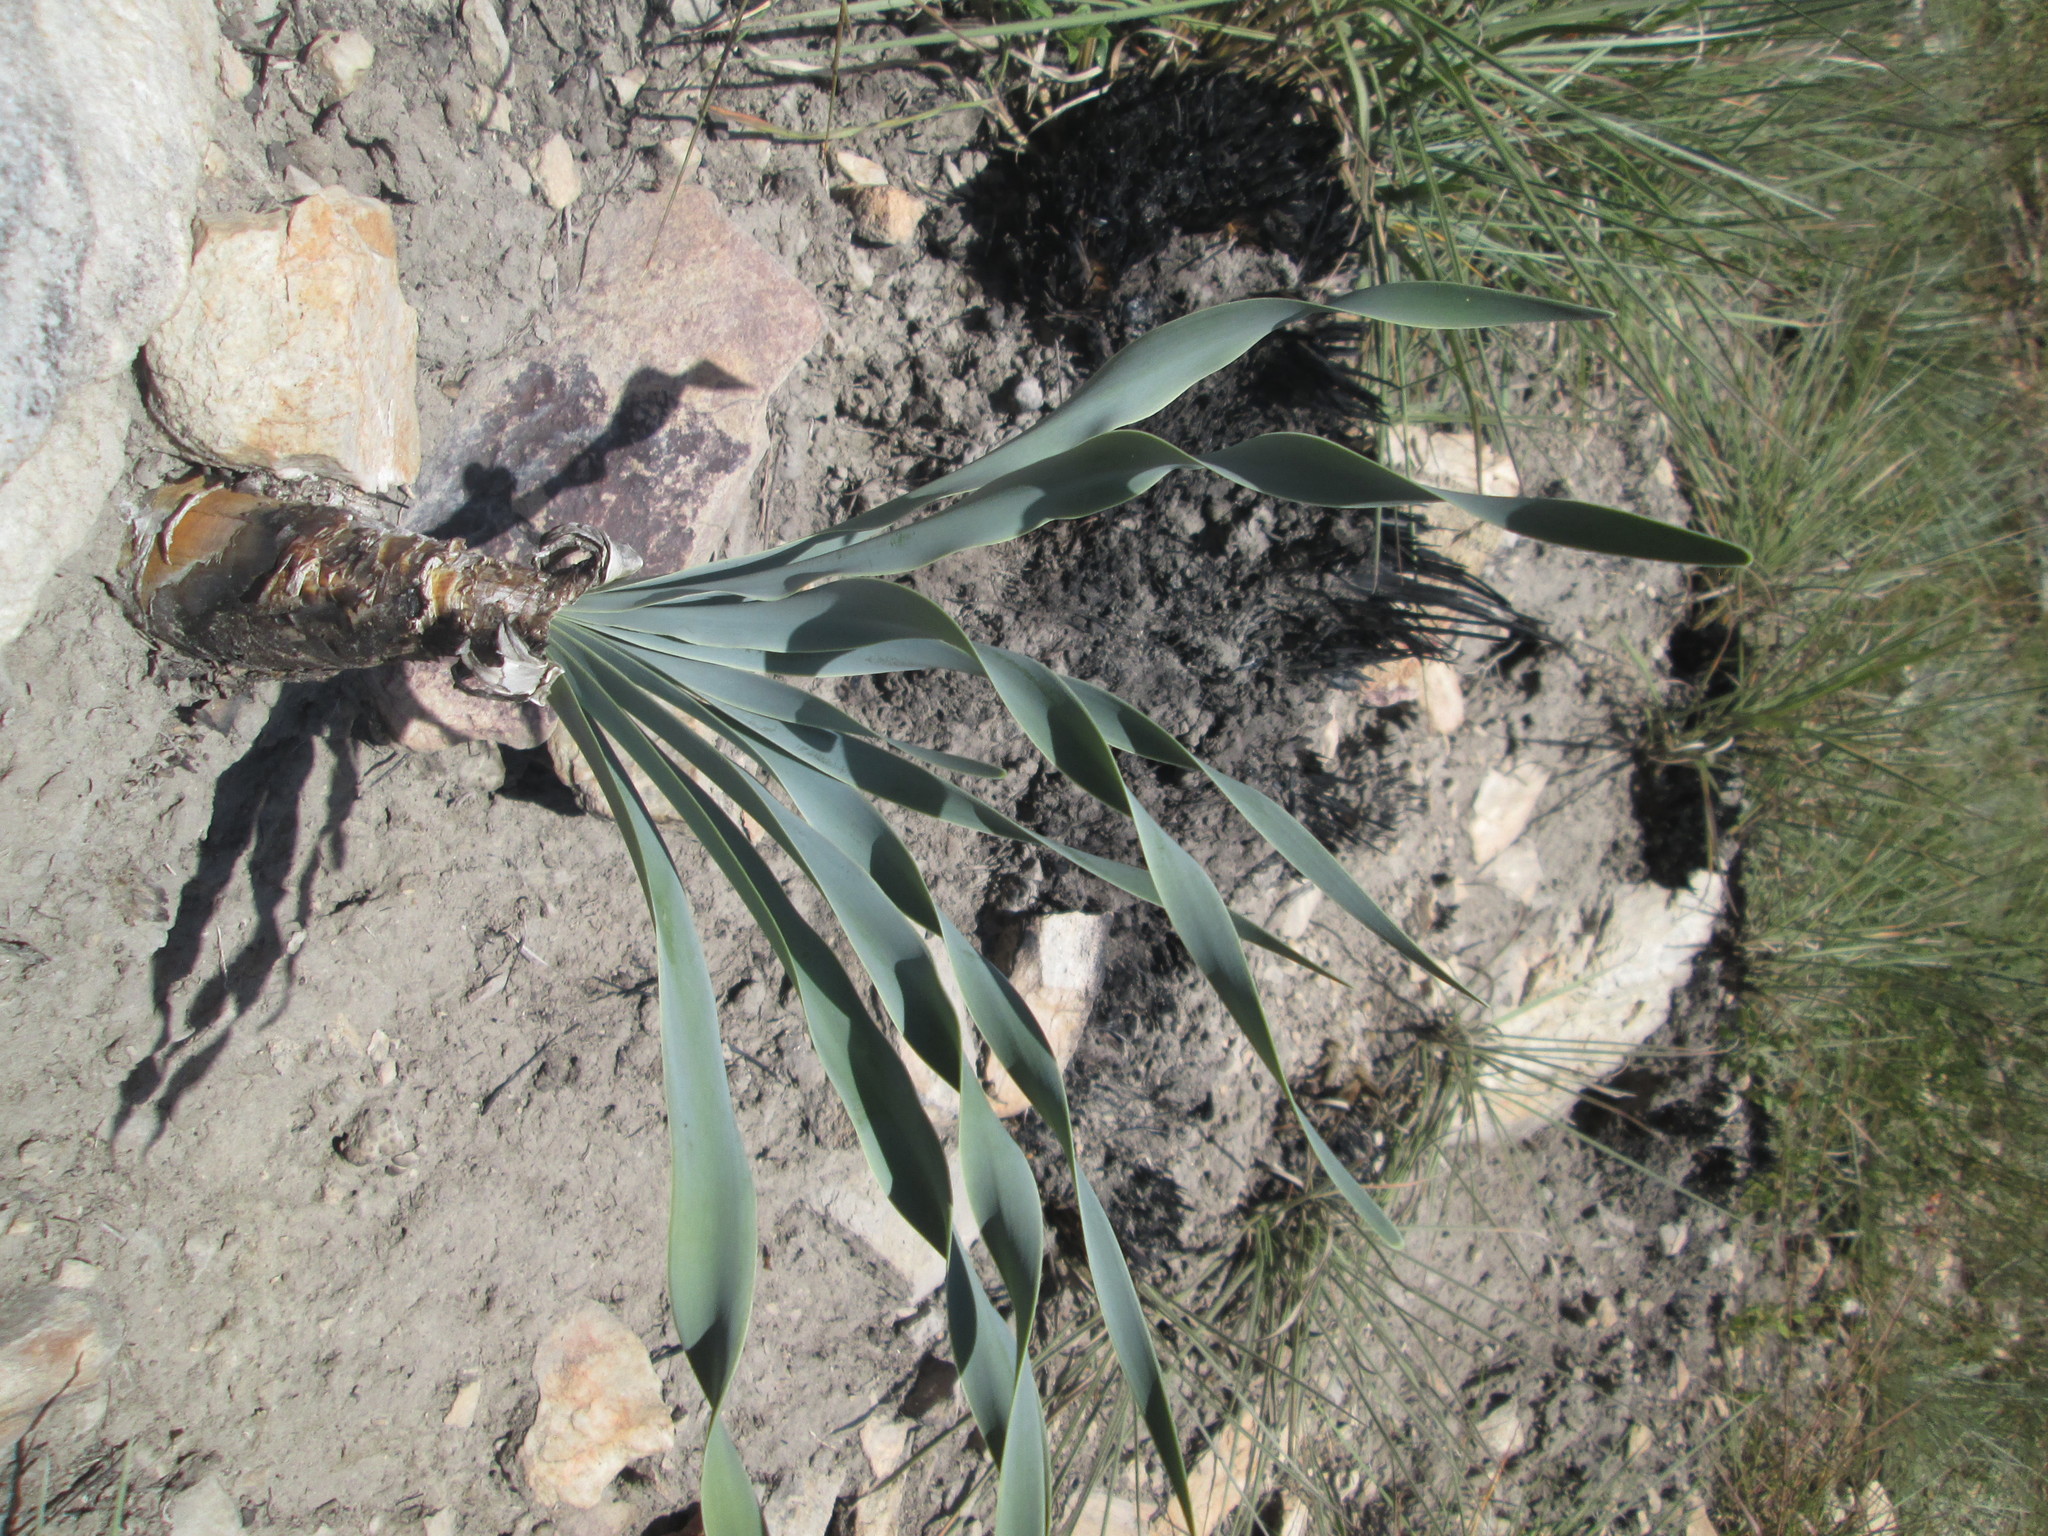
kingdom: Plantae
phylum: Tracheophyta
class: Liliopsida
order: Asparagales
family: Amaryllidaceae
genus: Boophone
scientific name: Boophone disticha
